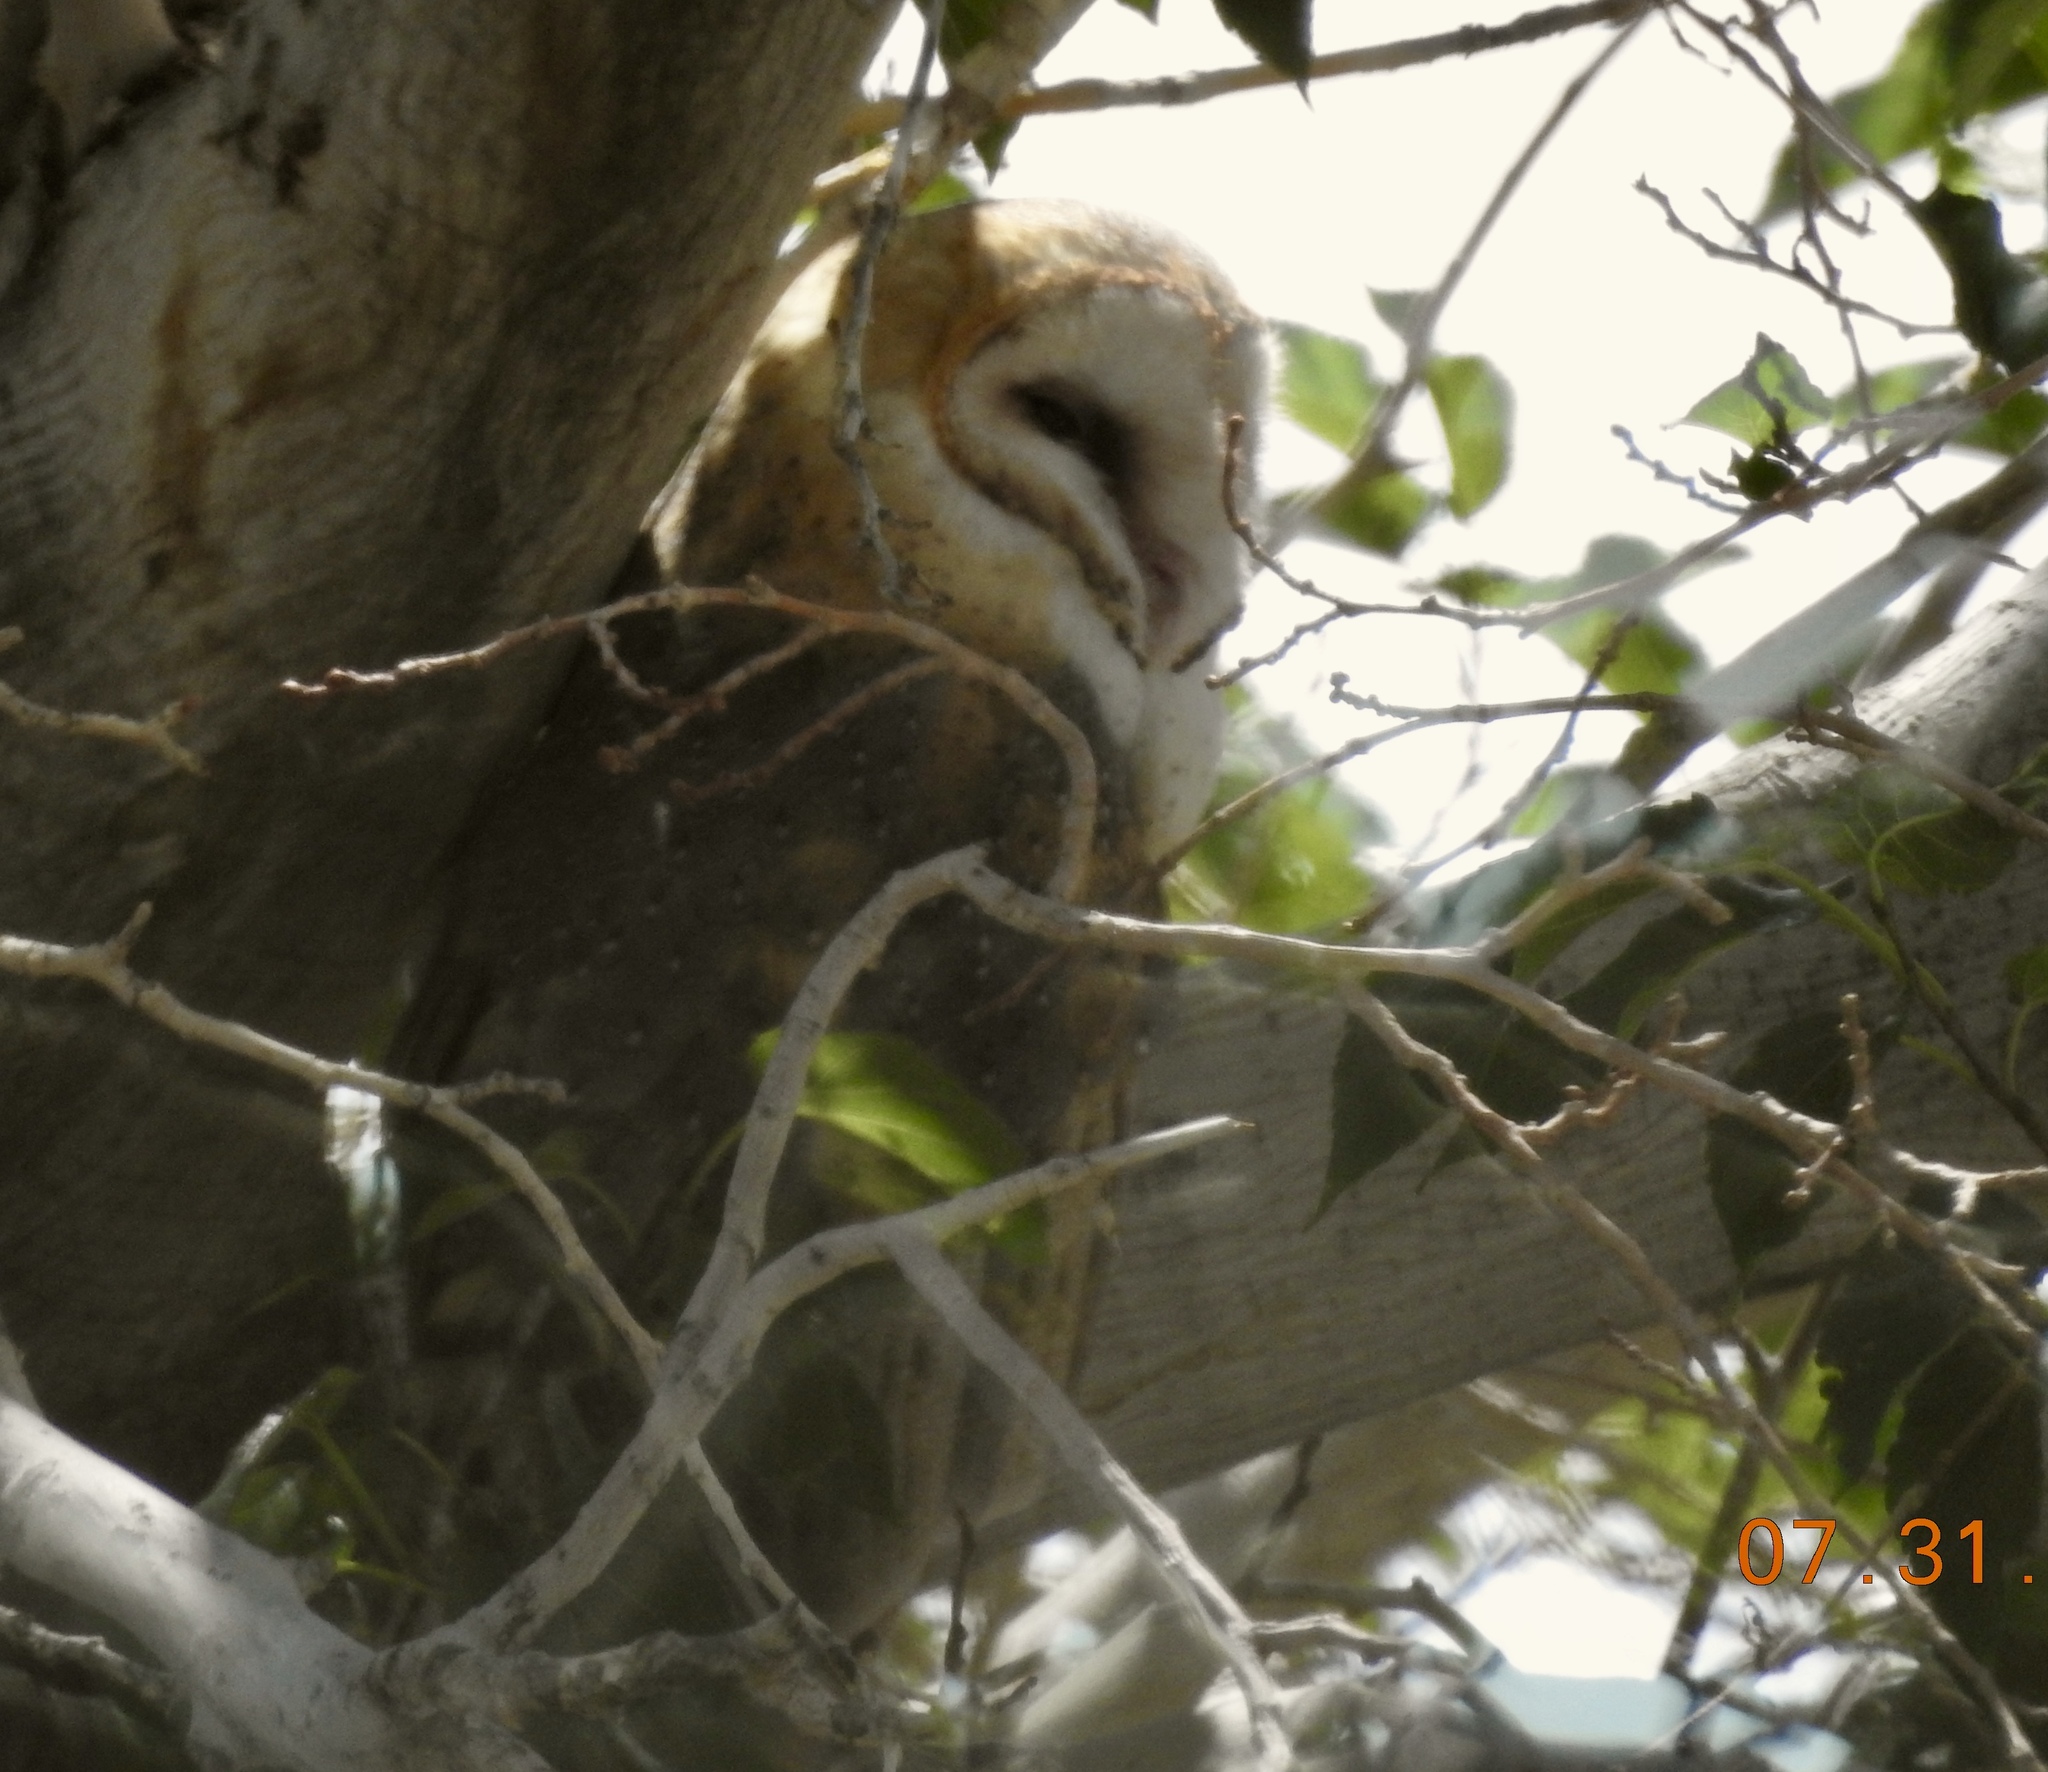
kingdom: Animalia
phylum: Chordata
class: Aves
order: Strigiformes
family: Tytonidae
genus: Tyto
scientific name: Tyto alba
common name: Barn owl
